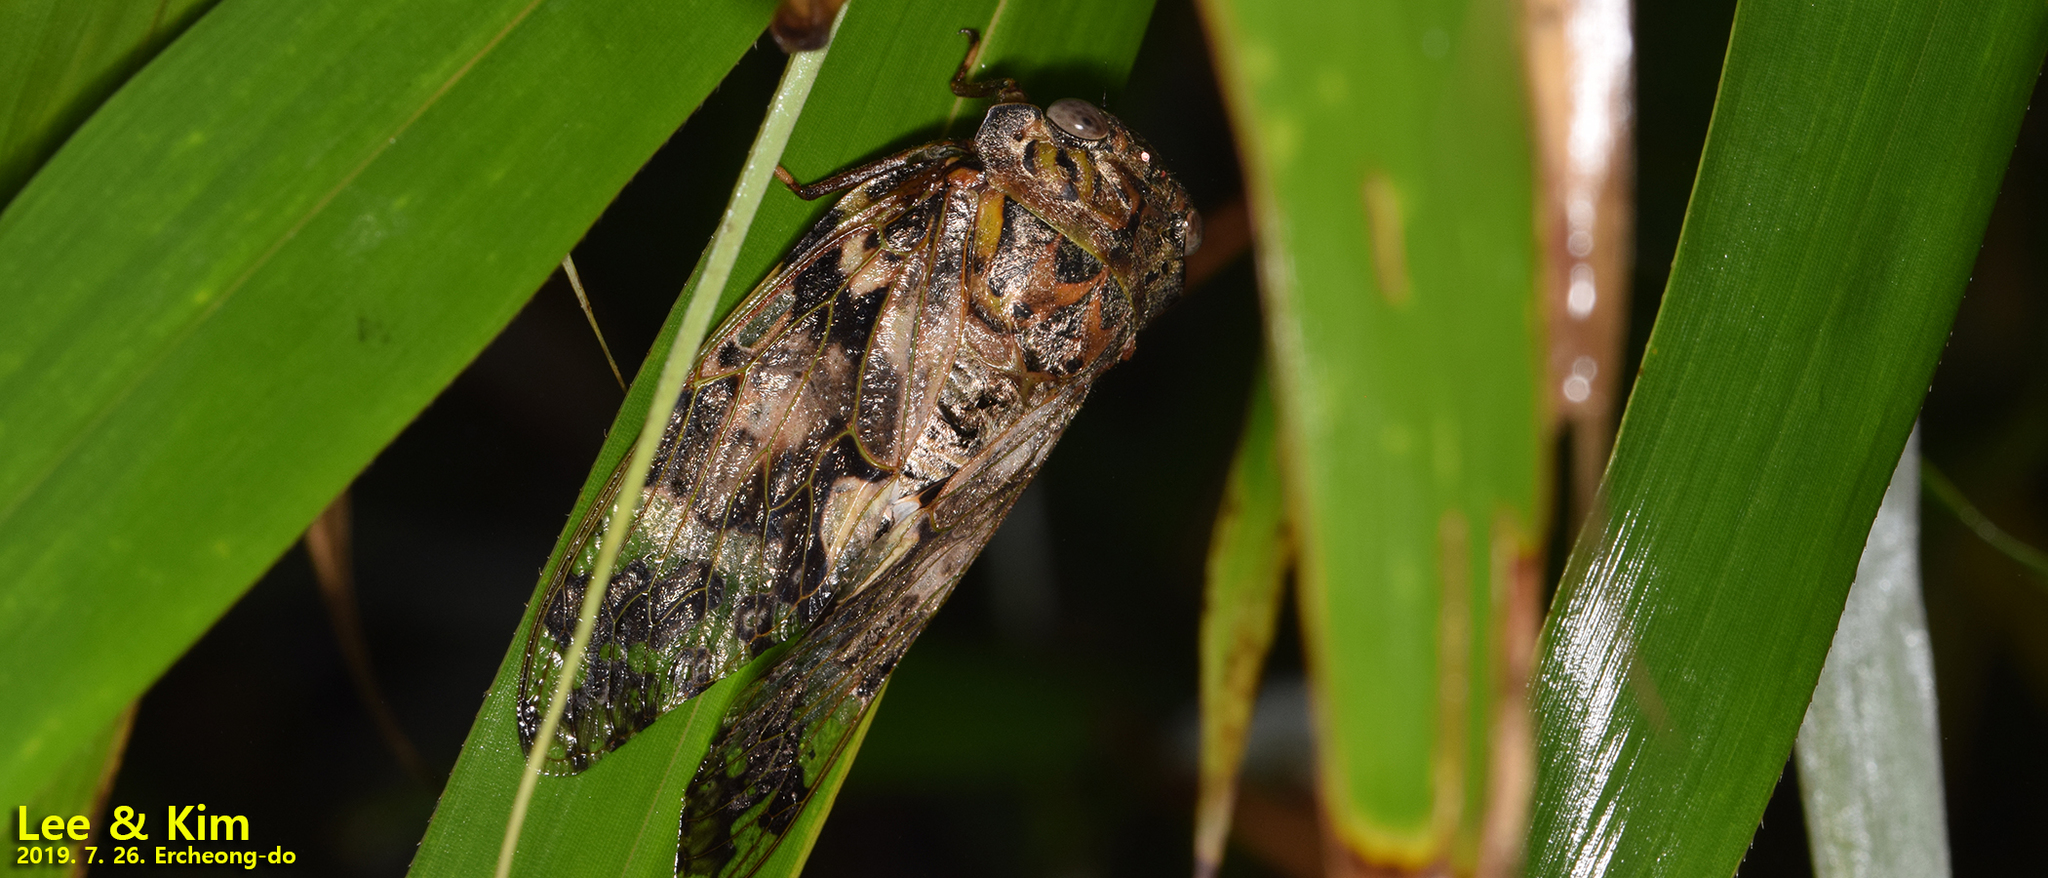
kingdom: Animalia
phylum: Arthropoda
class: Insecta
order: Hemiptera
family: Cicadidae
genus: Platypleura
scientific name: Platypleura kaempferi
